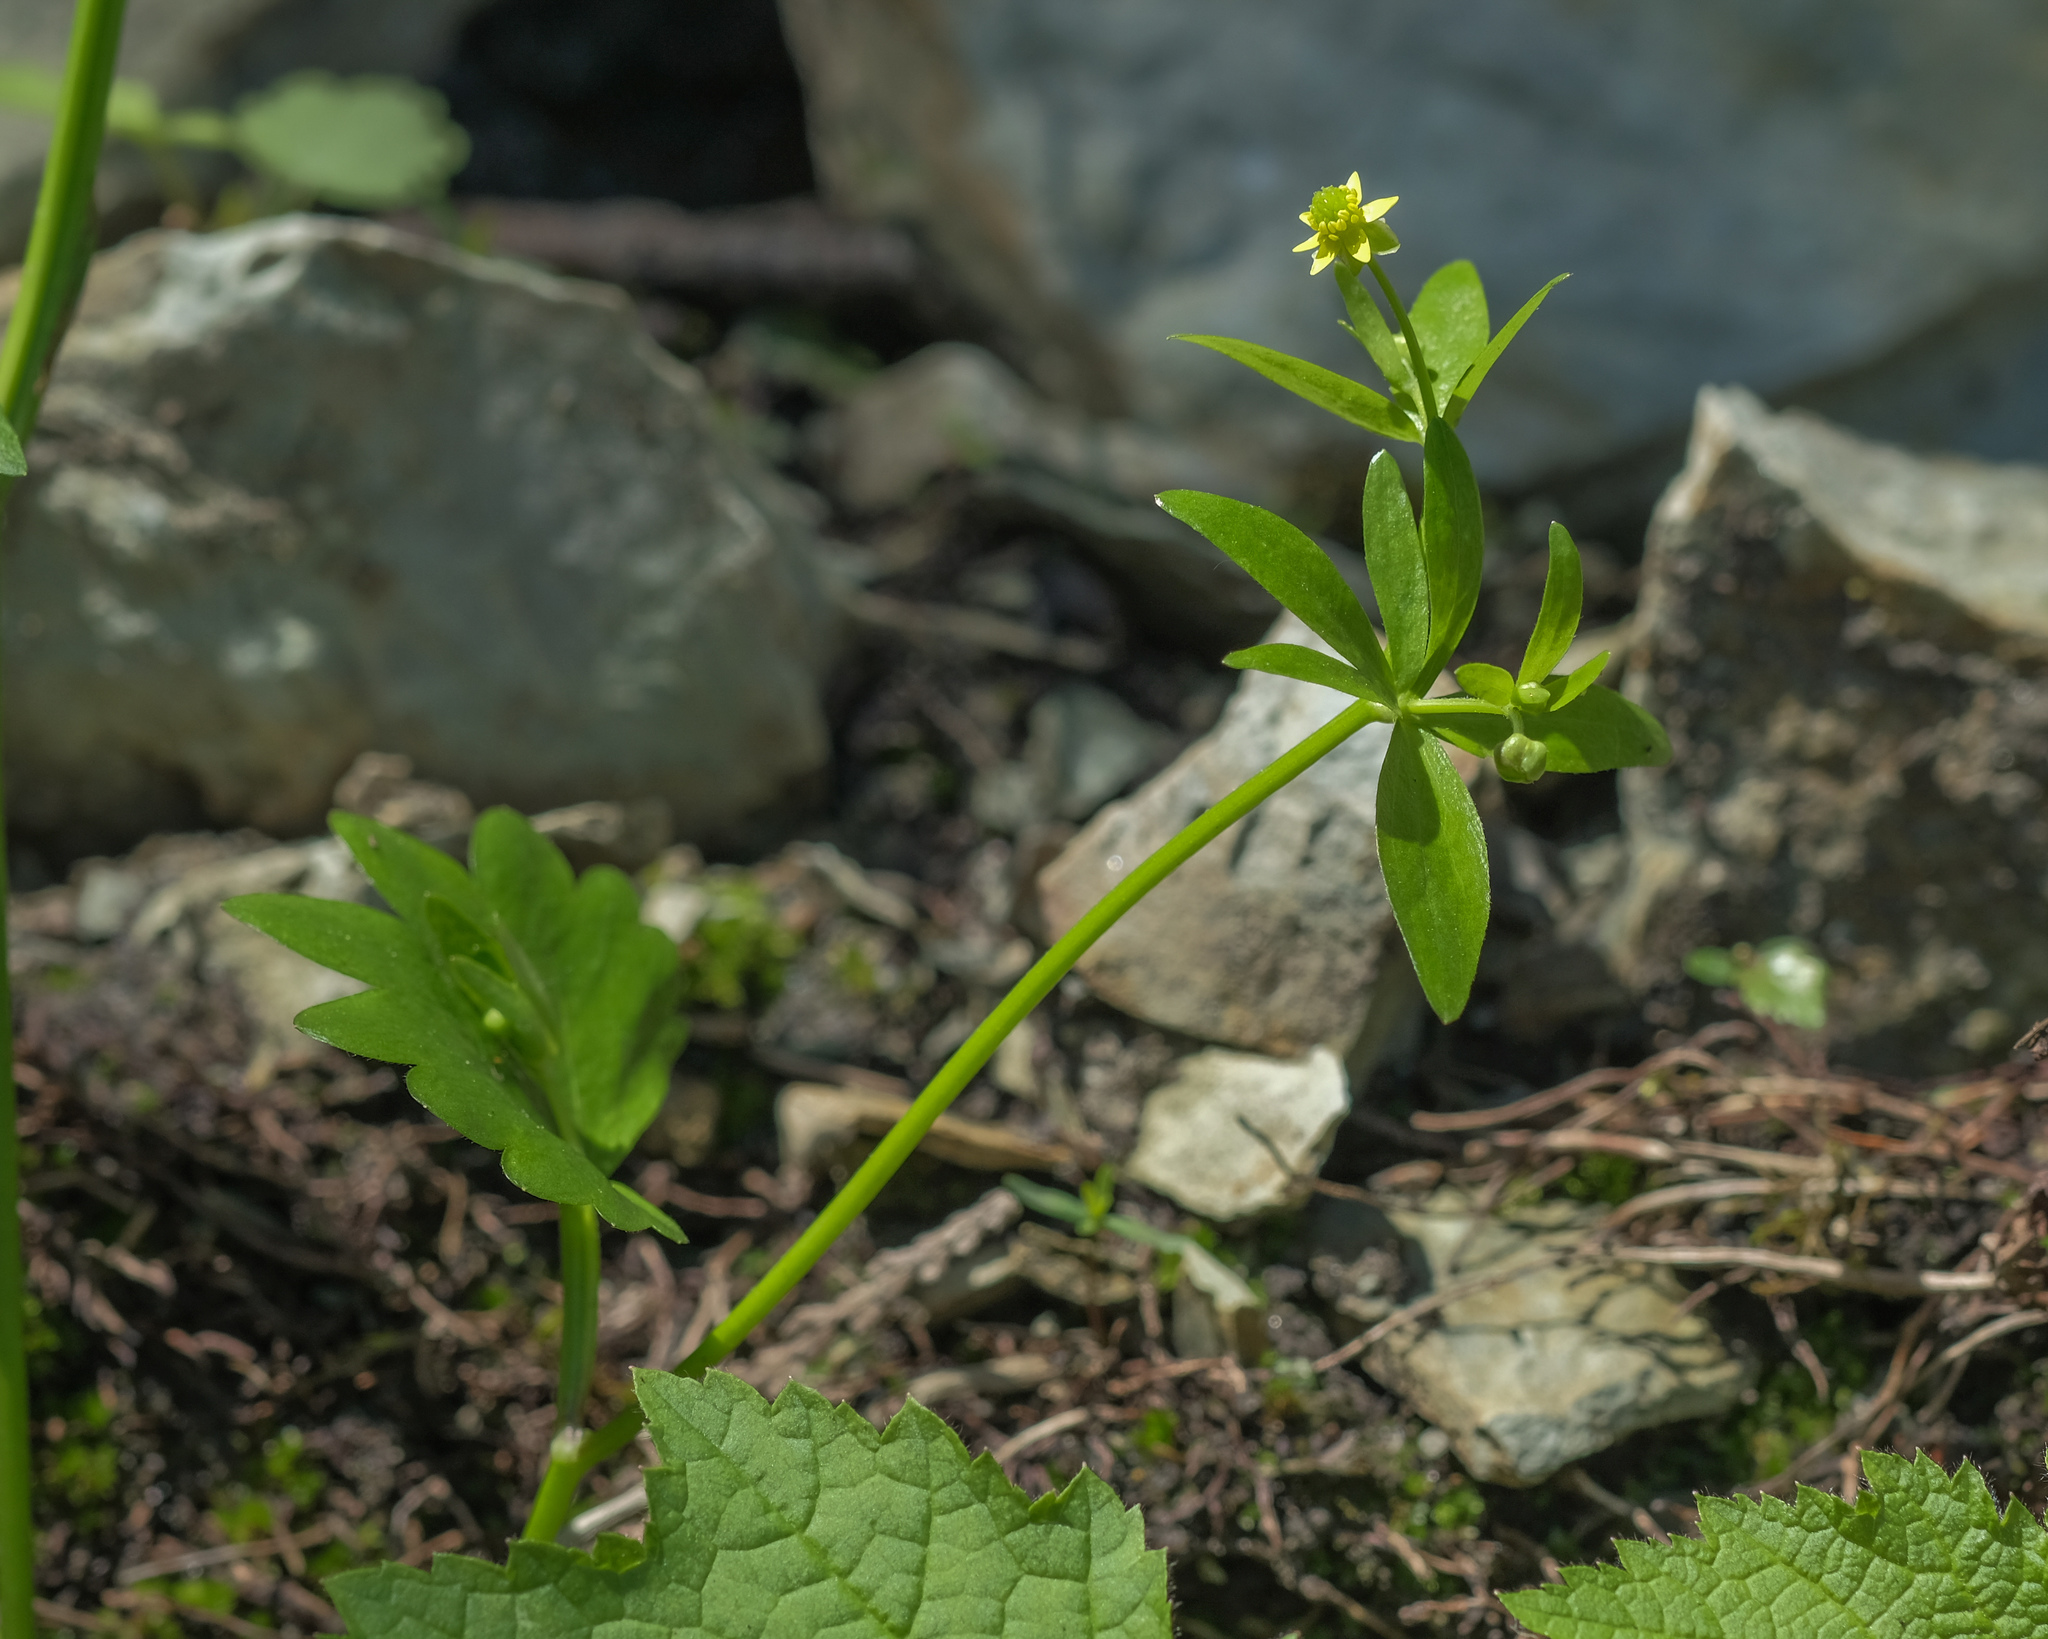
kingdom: Plantae
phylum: Tracheophyta
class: Magnoliopsida
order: Ranunculales
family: Ranunculaceae
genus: Ranunculus
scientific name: Ranunculus abortivus
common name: Early wood buttercup
